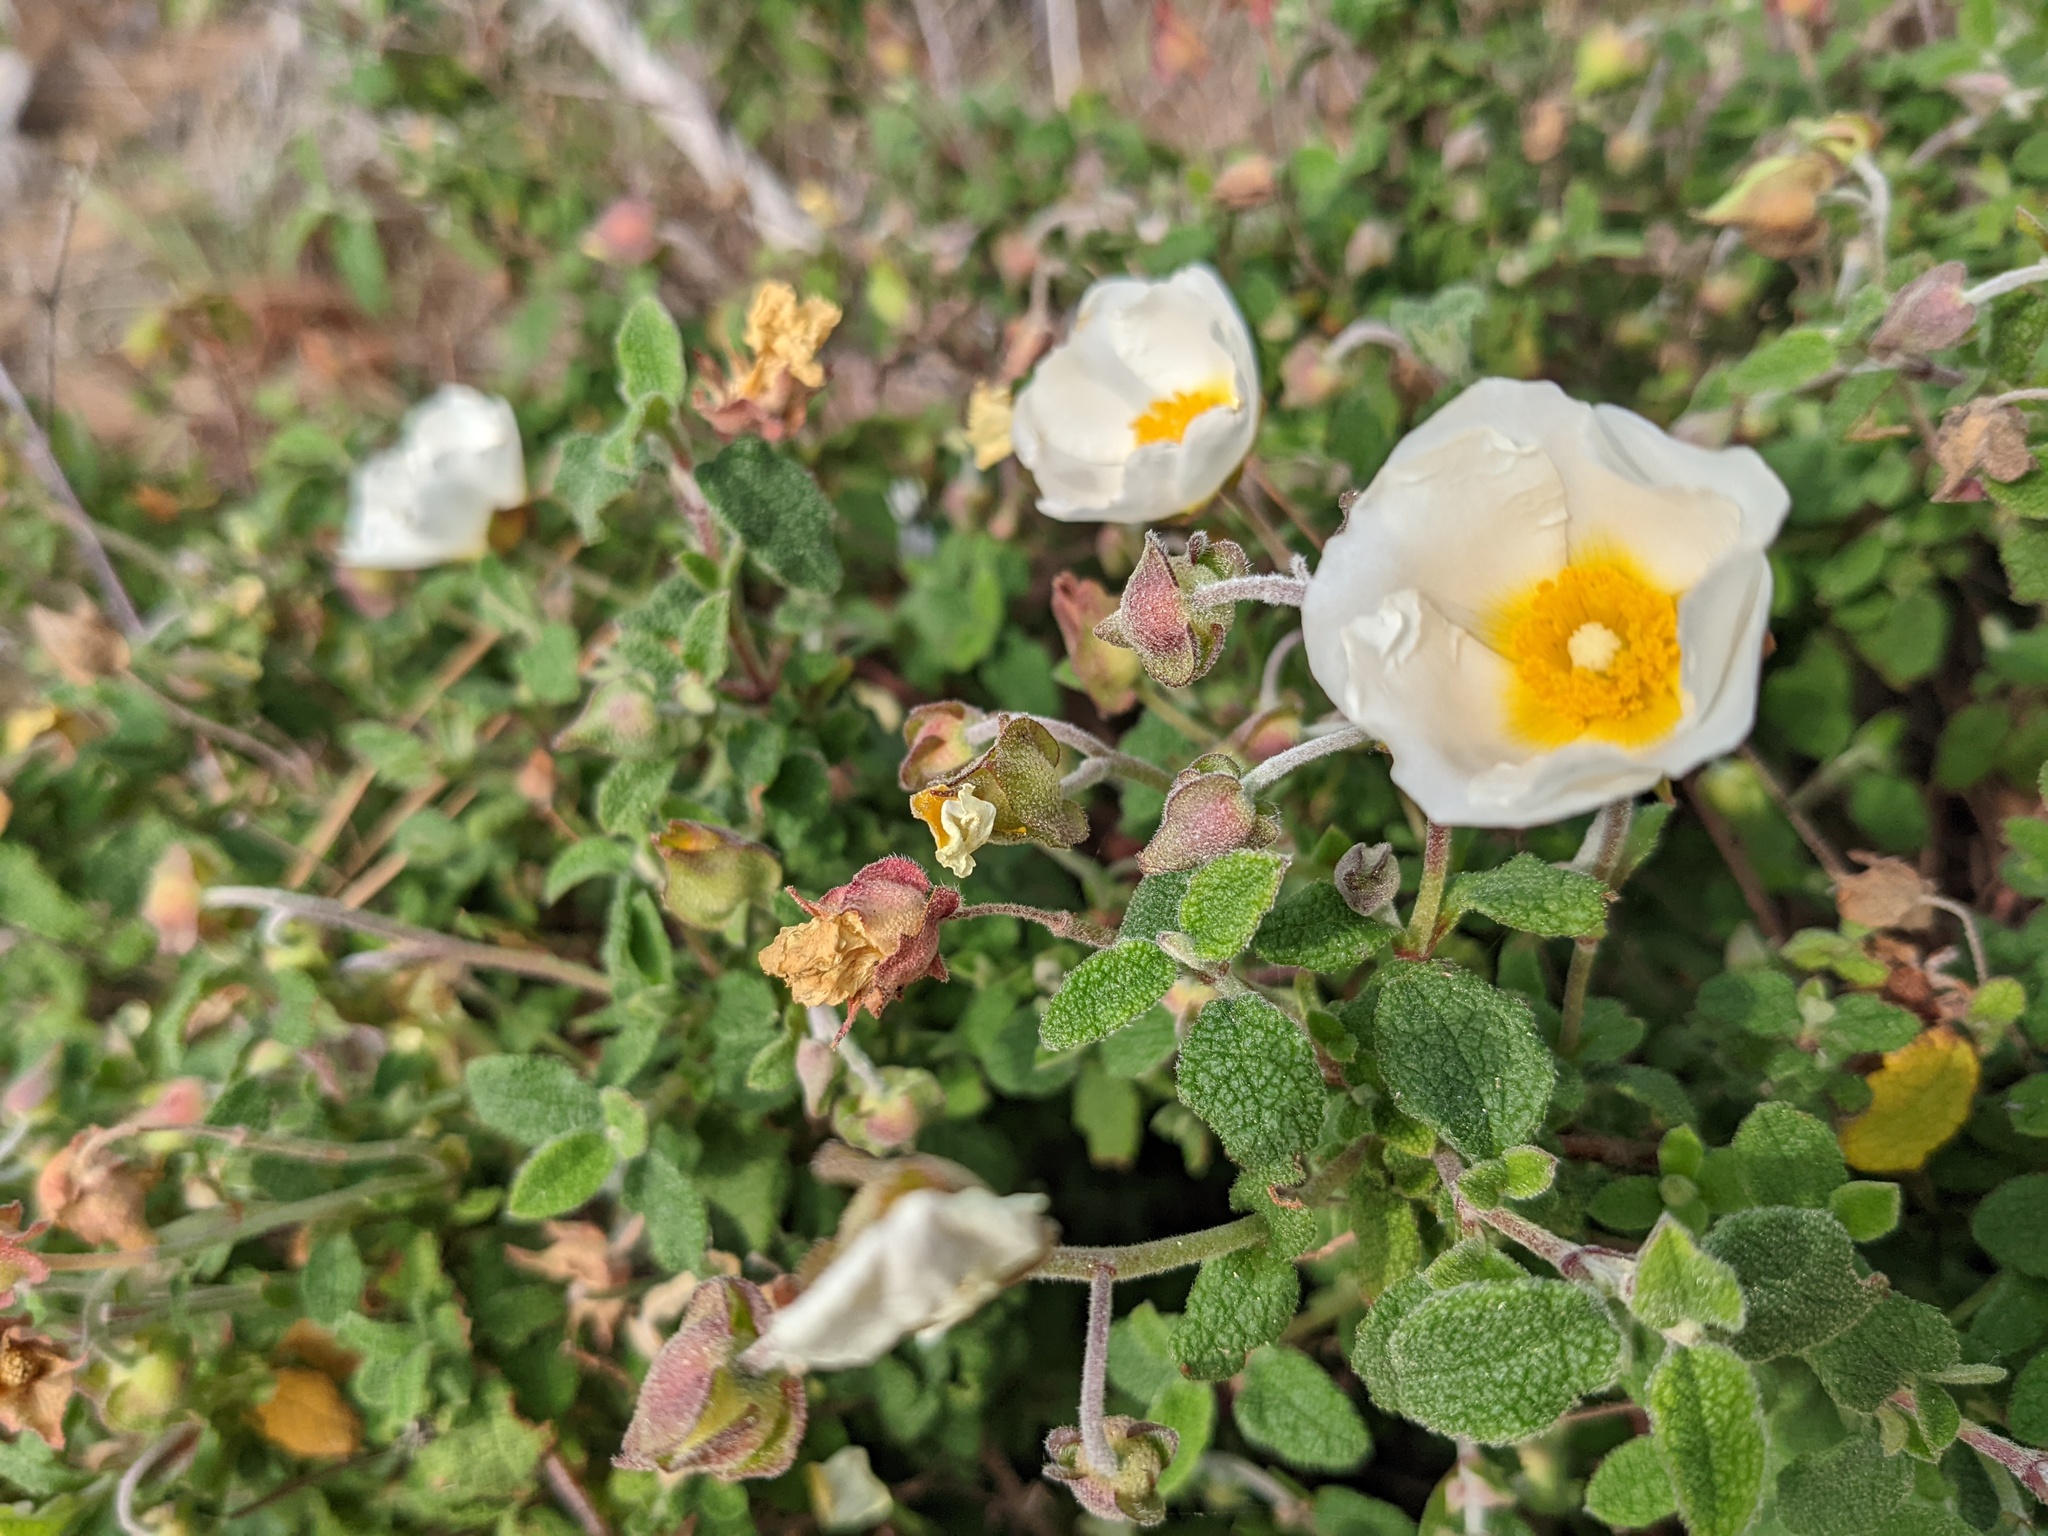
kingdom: Plantae
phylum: Tracheophyta
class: Magnoliopsida
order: Malvales
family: Cistaceae
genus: Cistus
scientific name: Cistus salviifolius
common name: Salvia cistus
